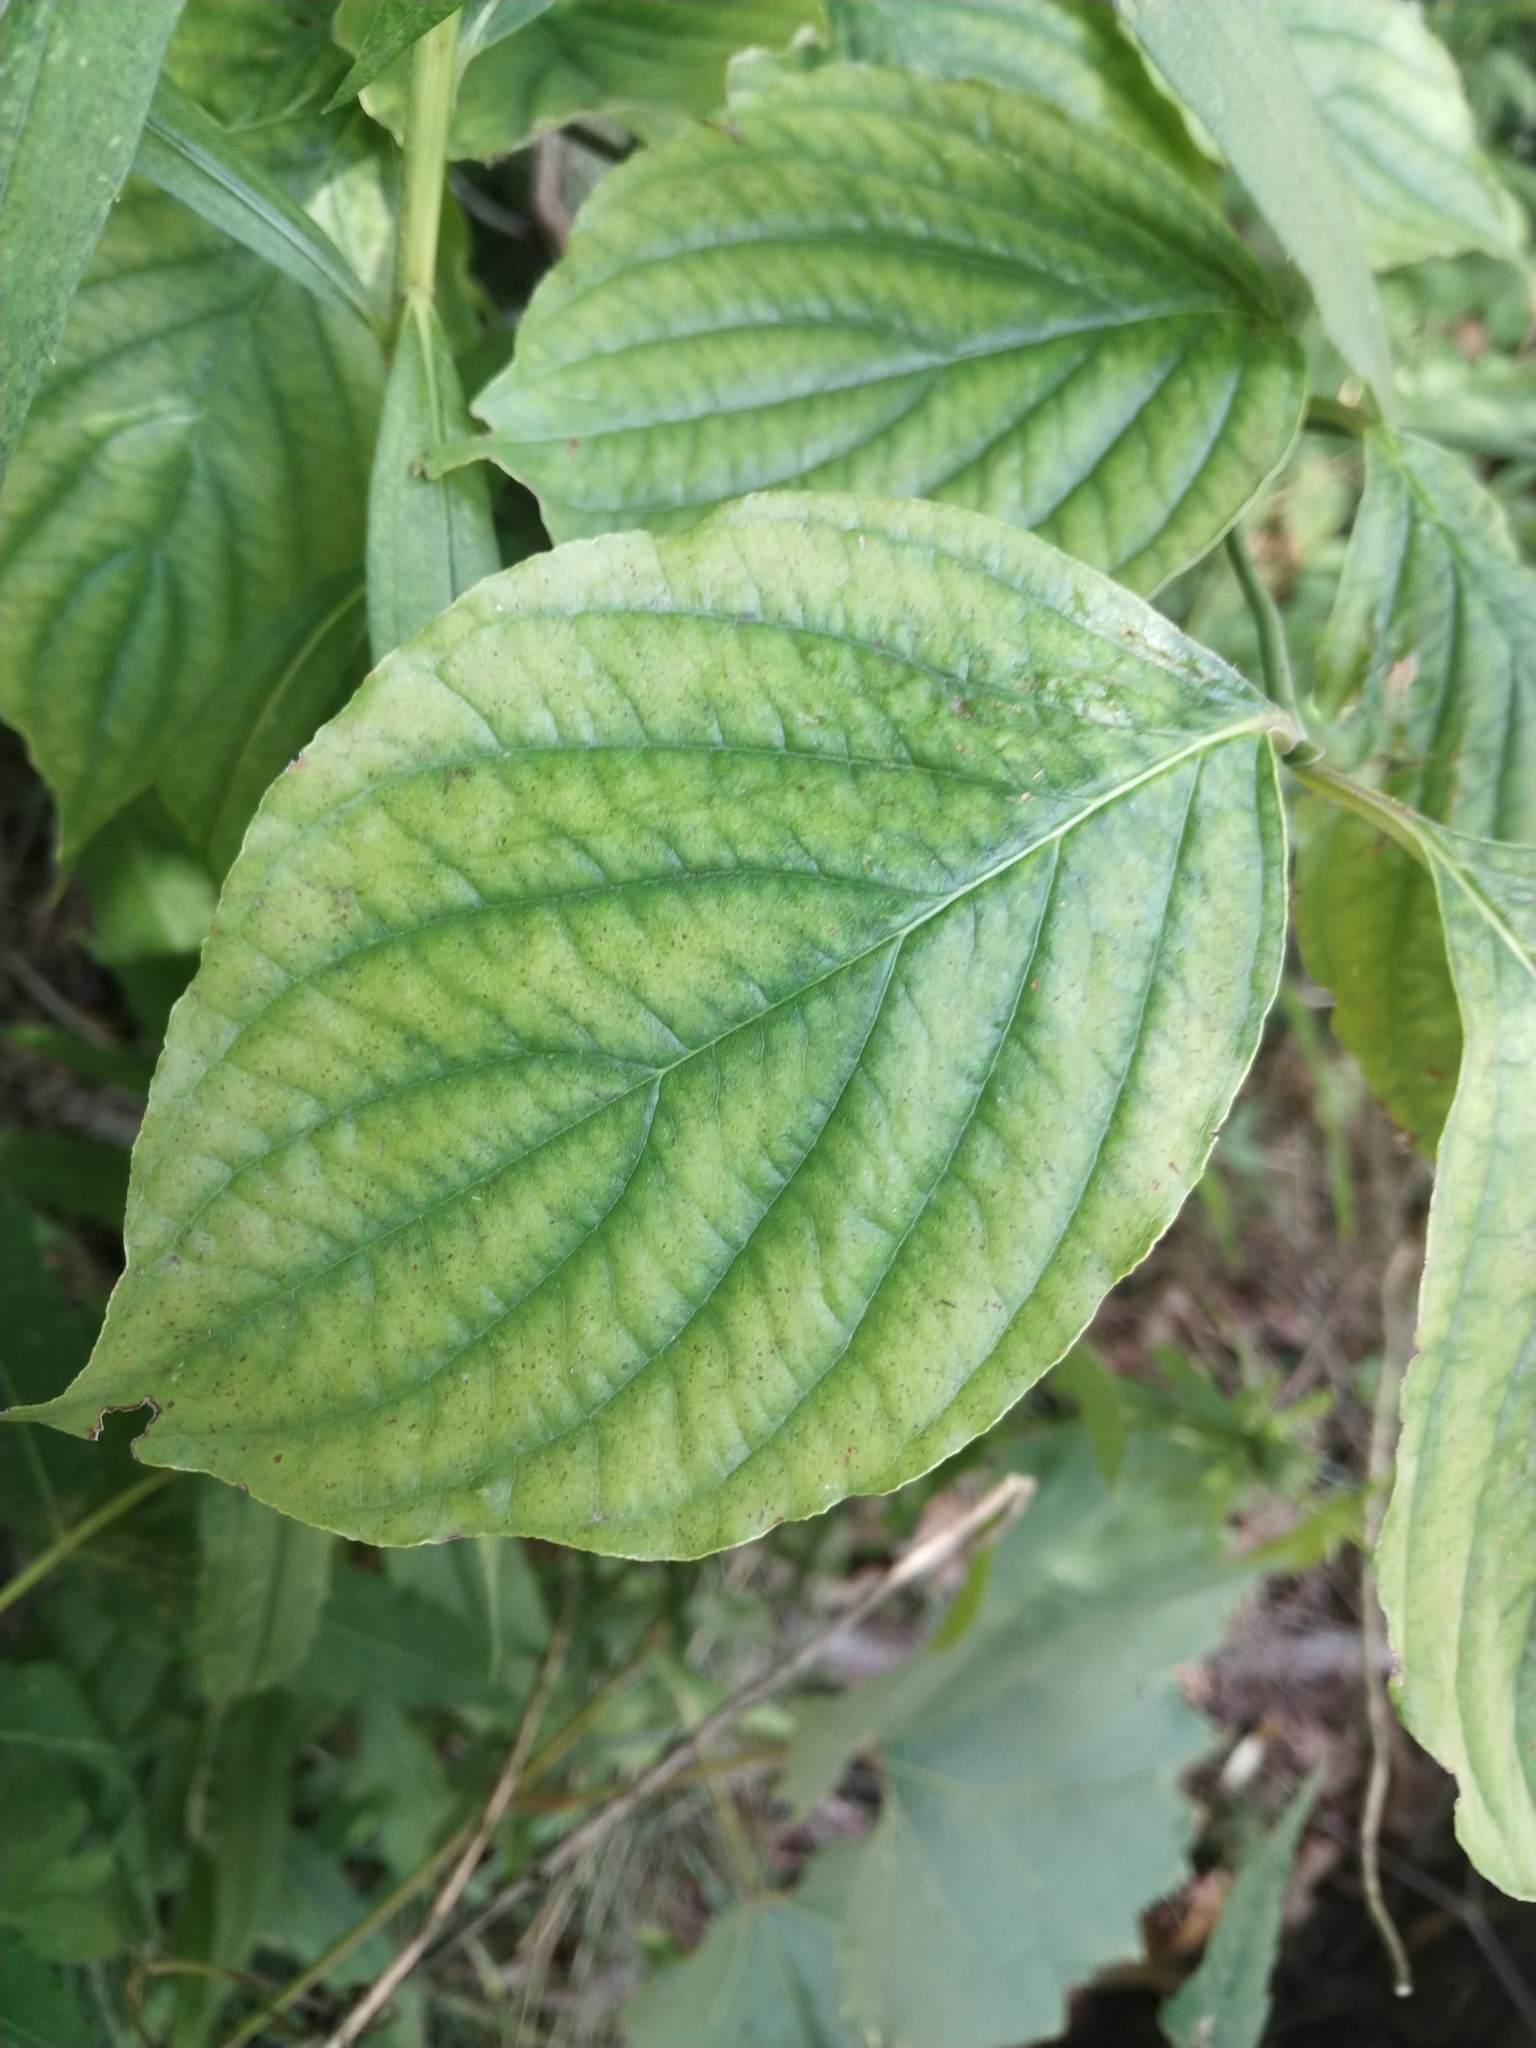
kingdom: Plantae
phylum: Tracheophyta
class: Magnoliopsida
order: Cornales
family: Cornaceae
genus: Cornus
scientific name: Cornus florida
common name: Flowering dogwood
